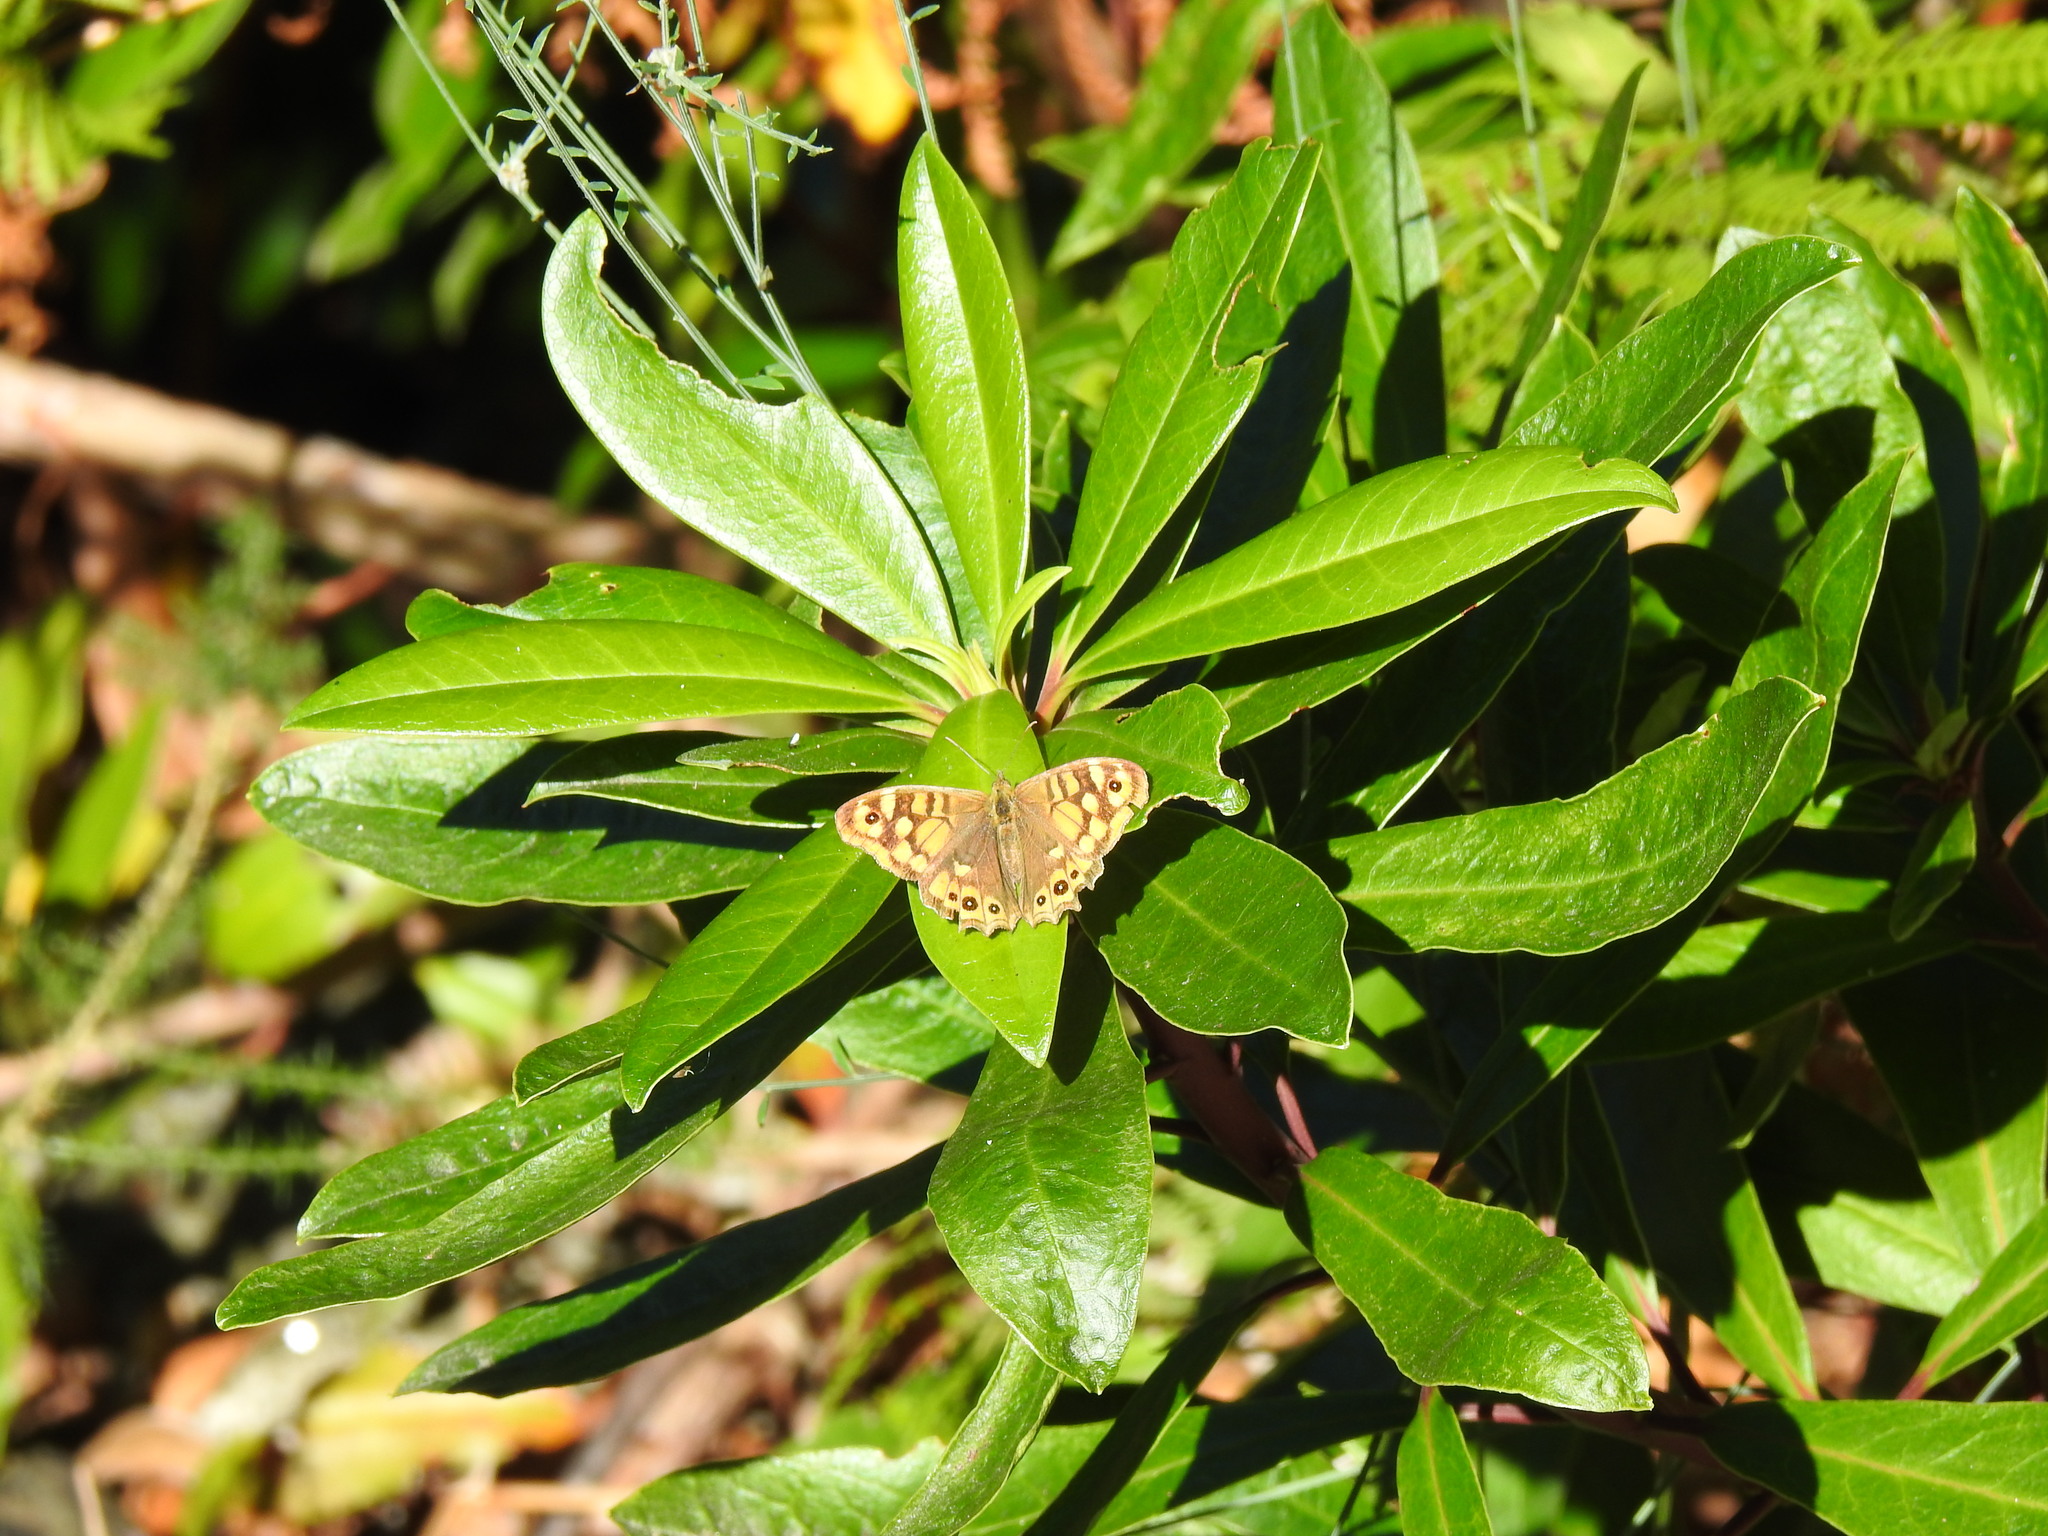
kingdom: Animalia
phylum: Arthropoda
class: Insecta
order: Lepidoptera
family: Nymphalidae
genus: Pararge
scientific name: Pararge aegeria
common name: Speckled wood
